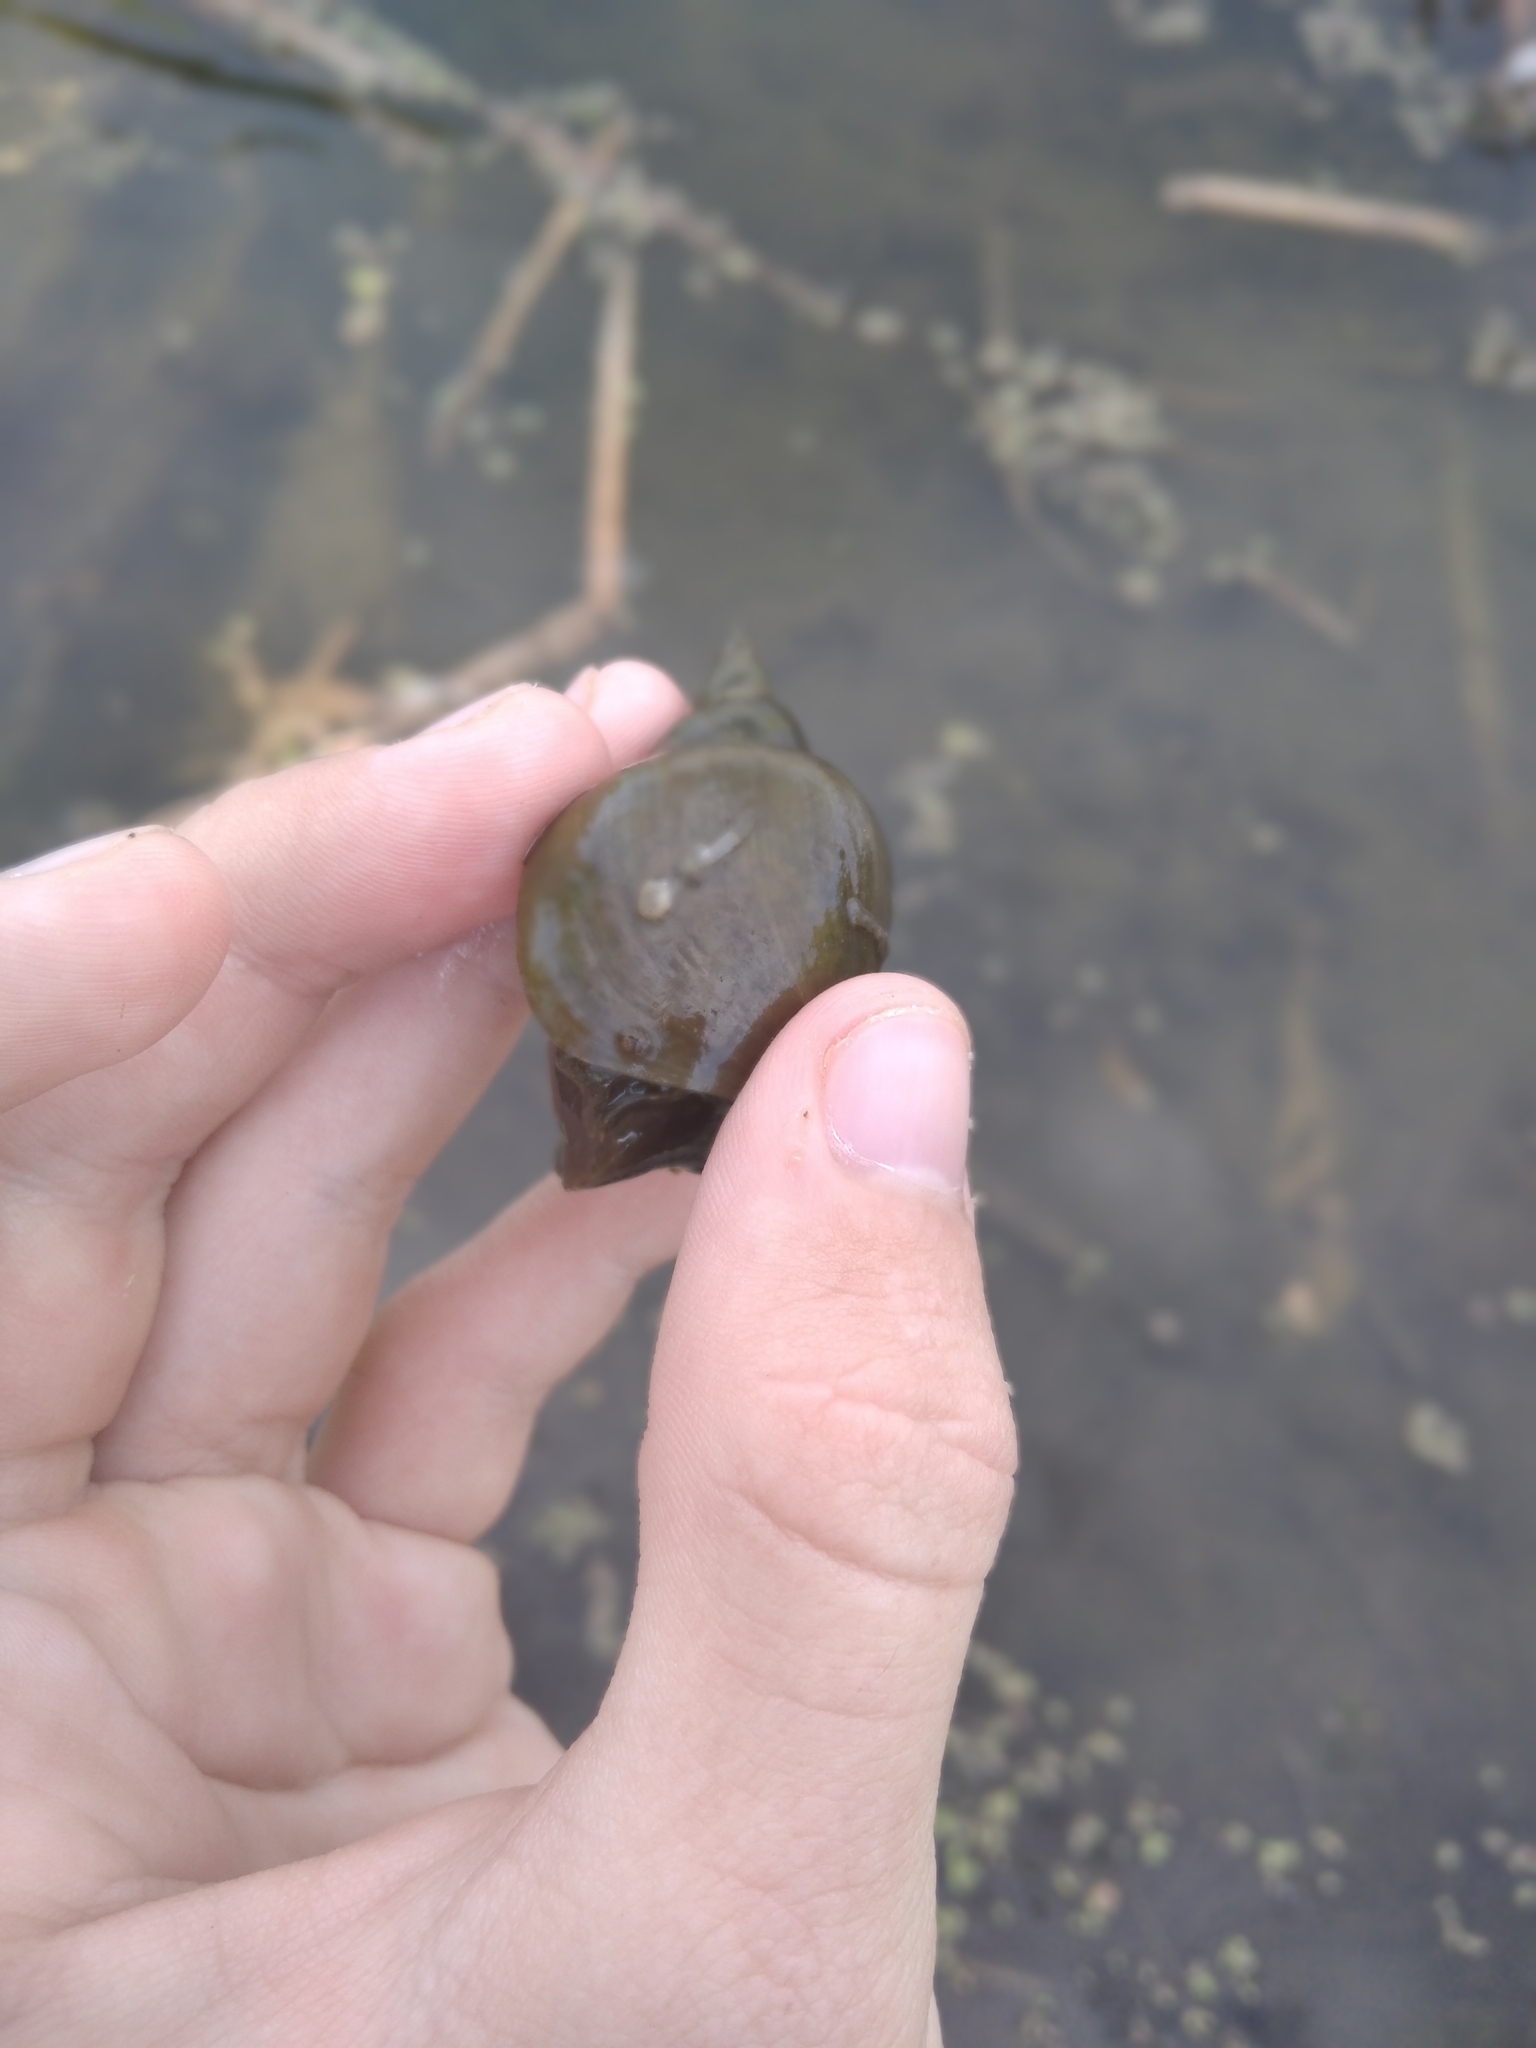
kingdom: Animalia
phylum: Mollusca
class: Gastropoda
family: Lymnaeidae
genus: Lymnaea
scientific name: Lymnaea stagnalis
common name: Great pond snail
